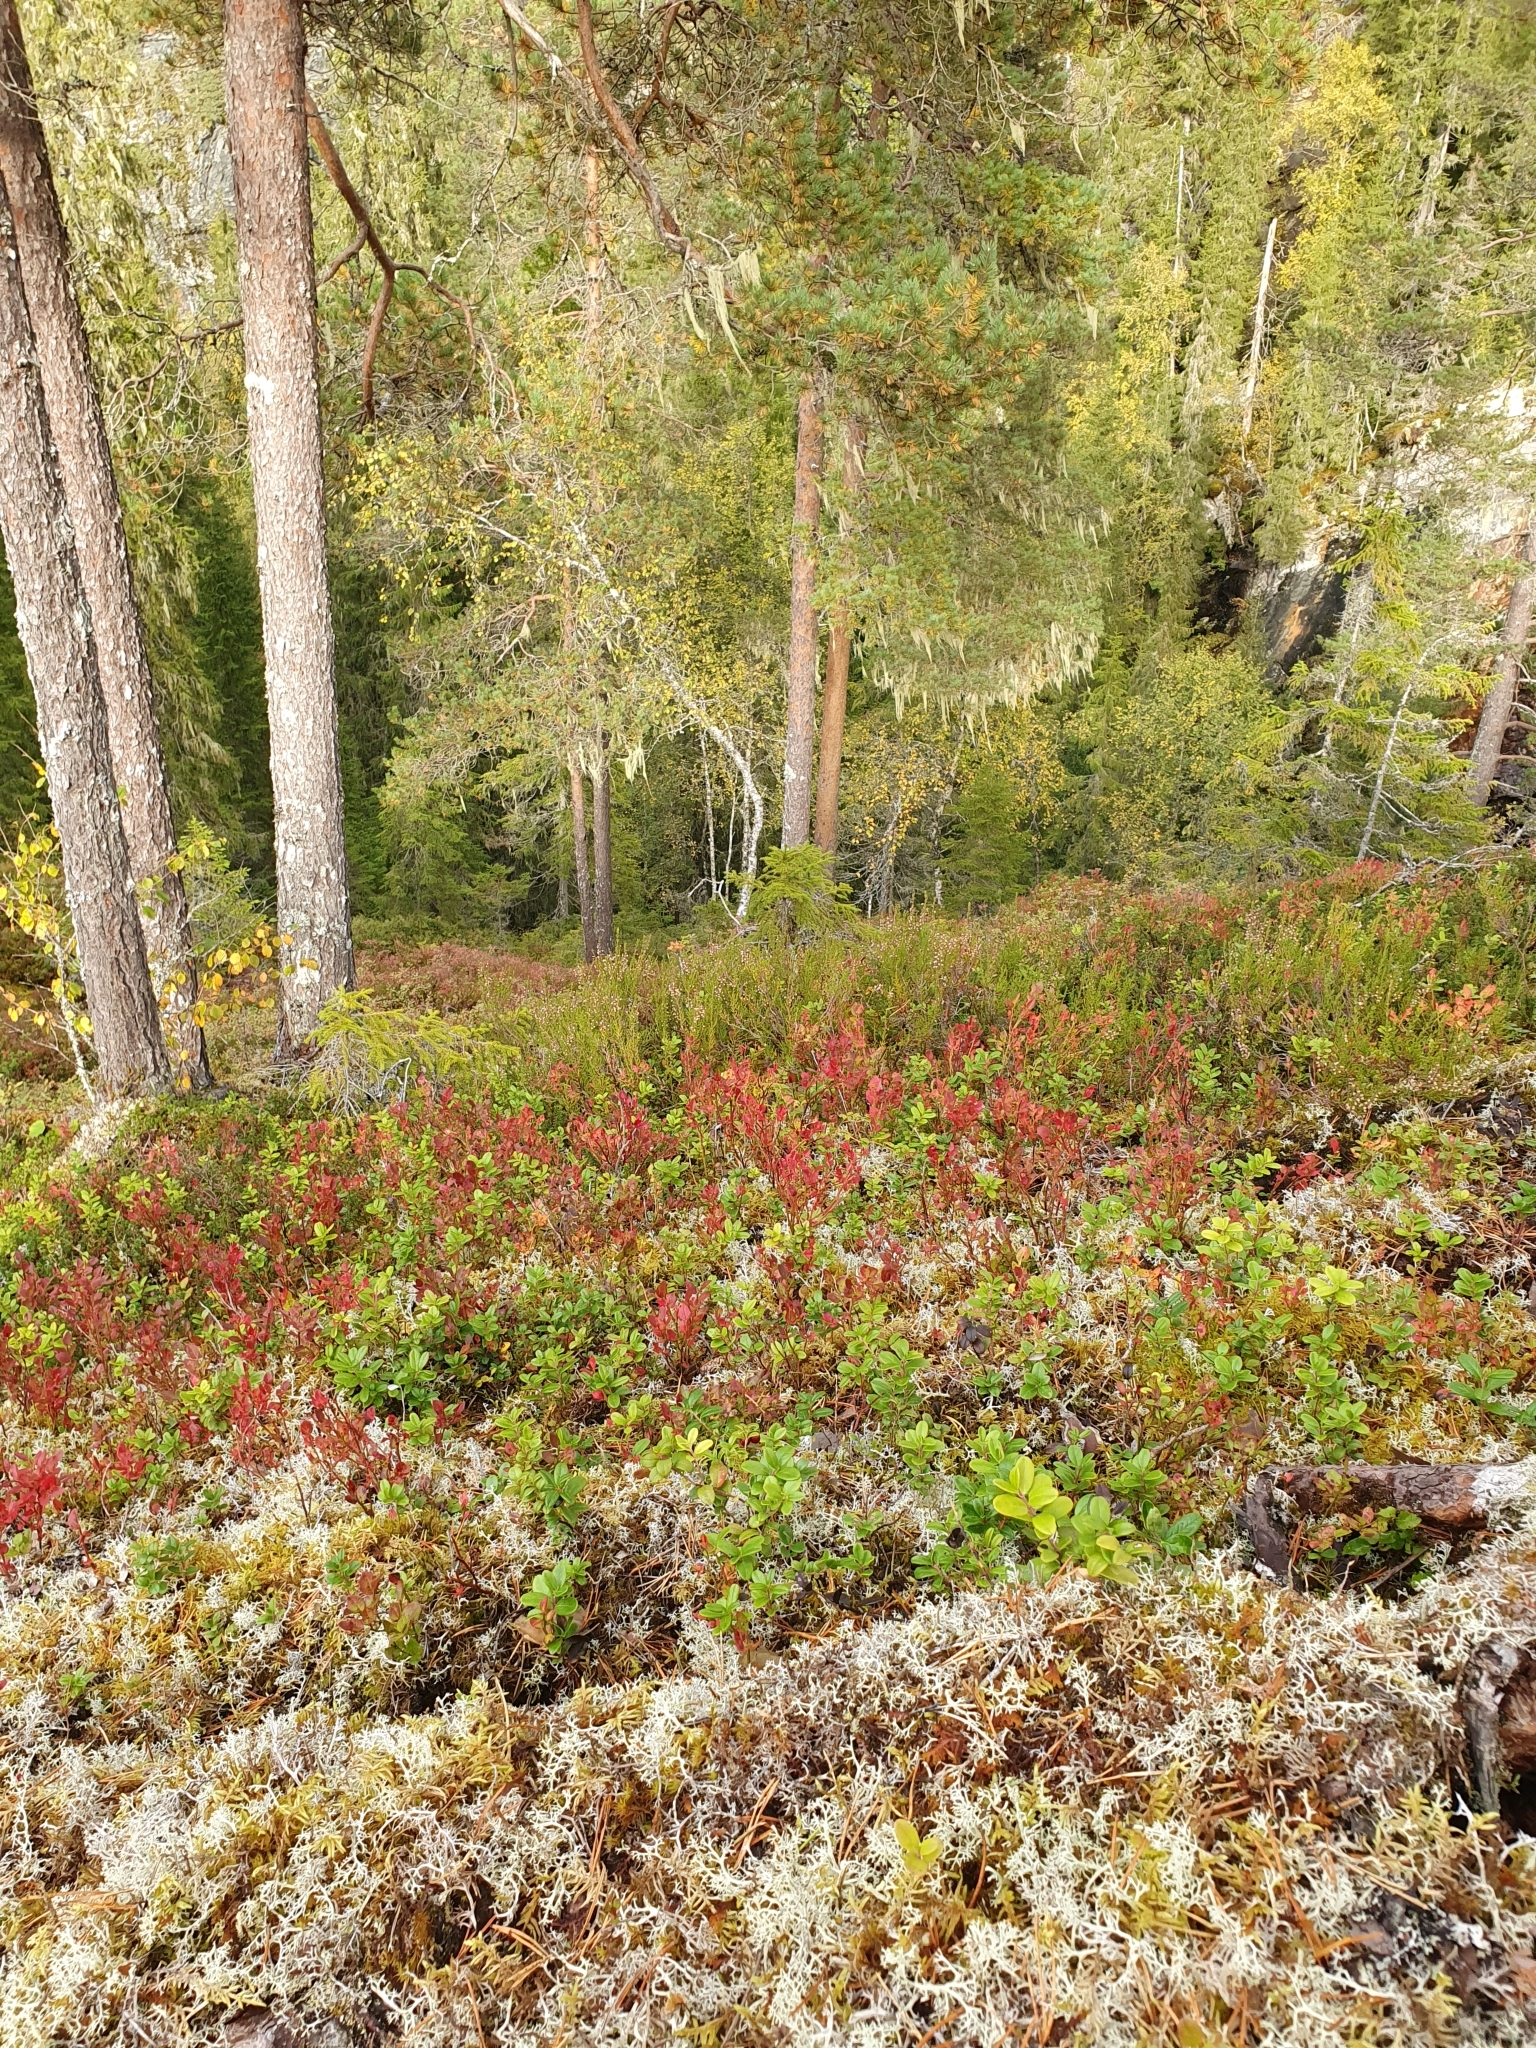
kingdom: Plantae
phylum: Tracheophyta
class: Magnoliopsida
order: Ericales
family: Ericaceae
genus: Vaccinium
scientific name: Vaccinium myrtillus
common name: Bilberry
